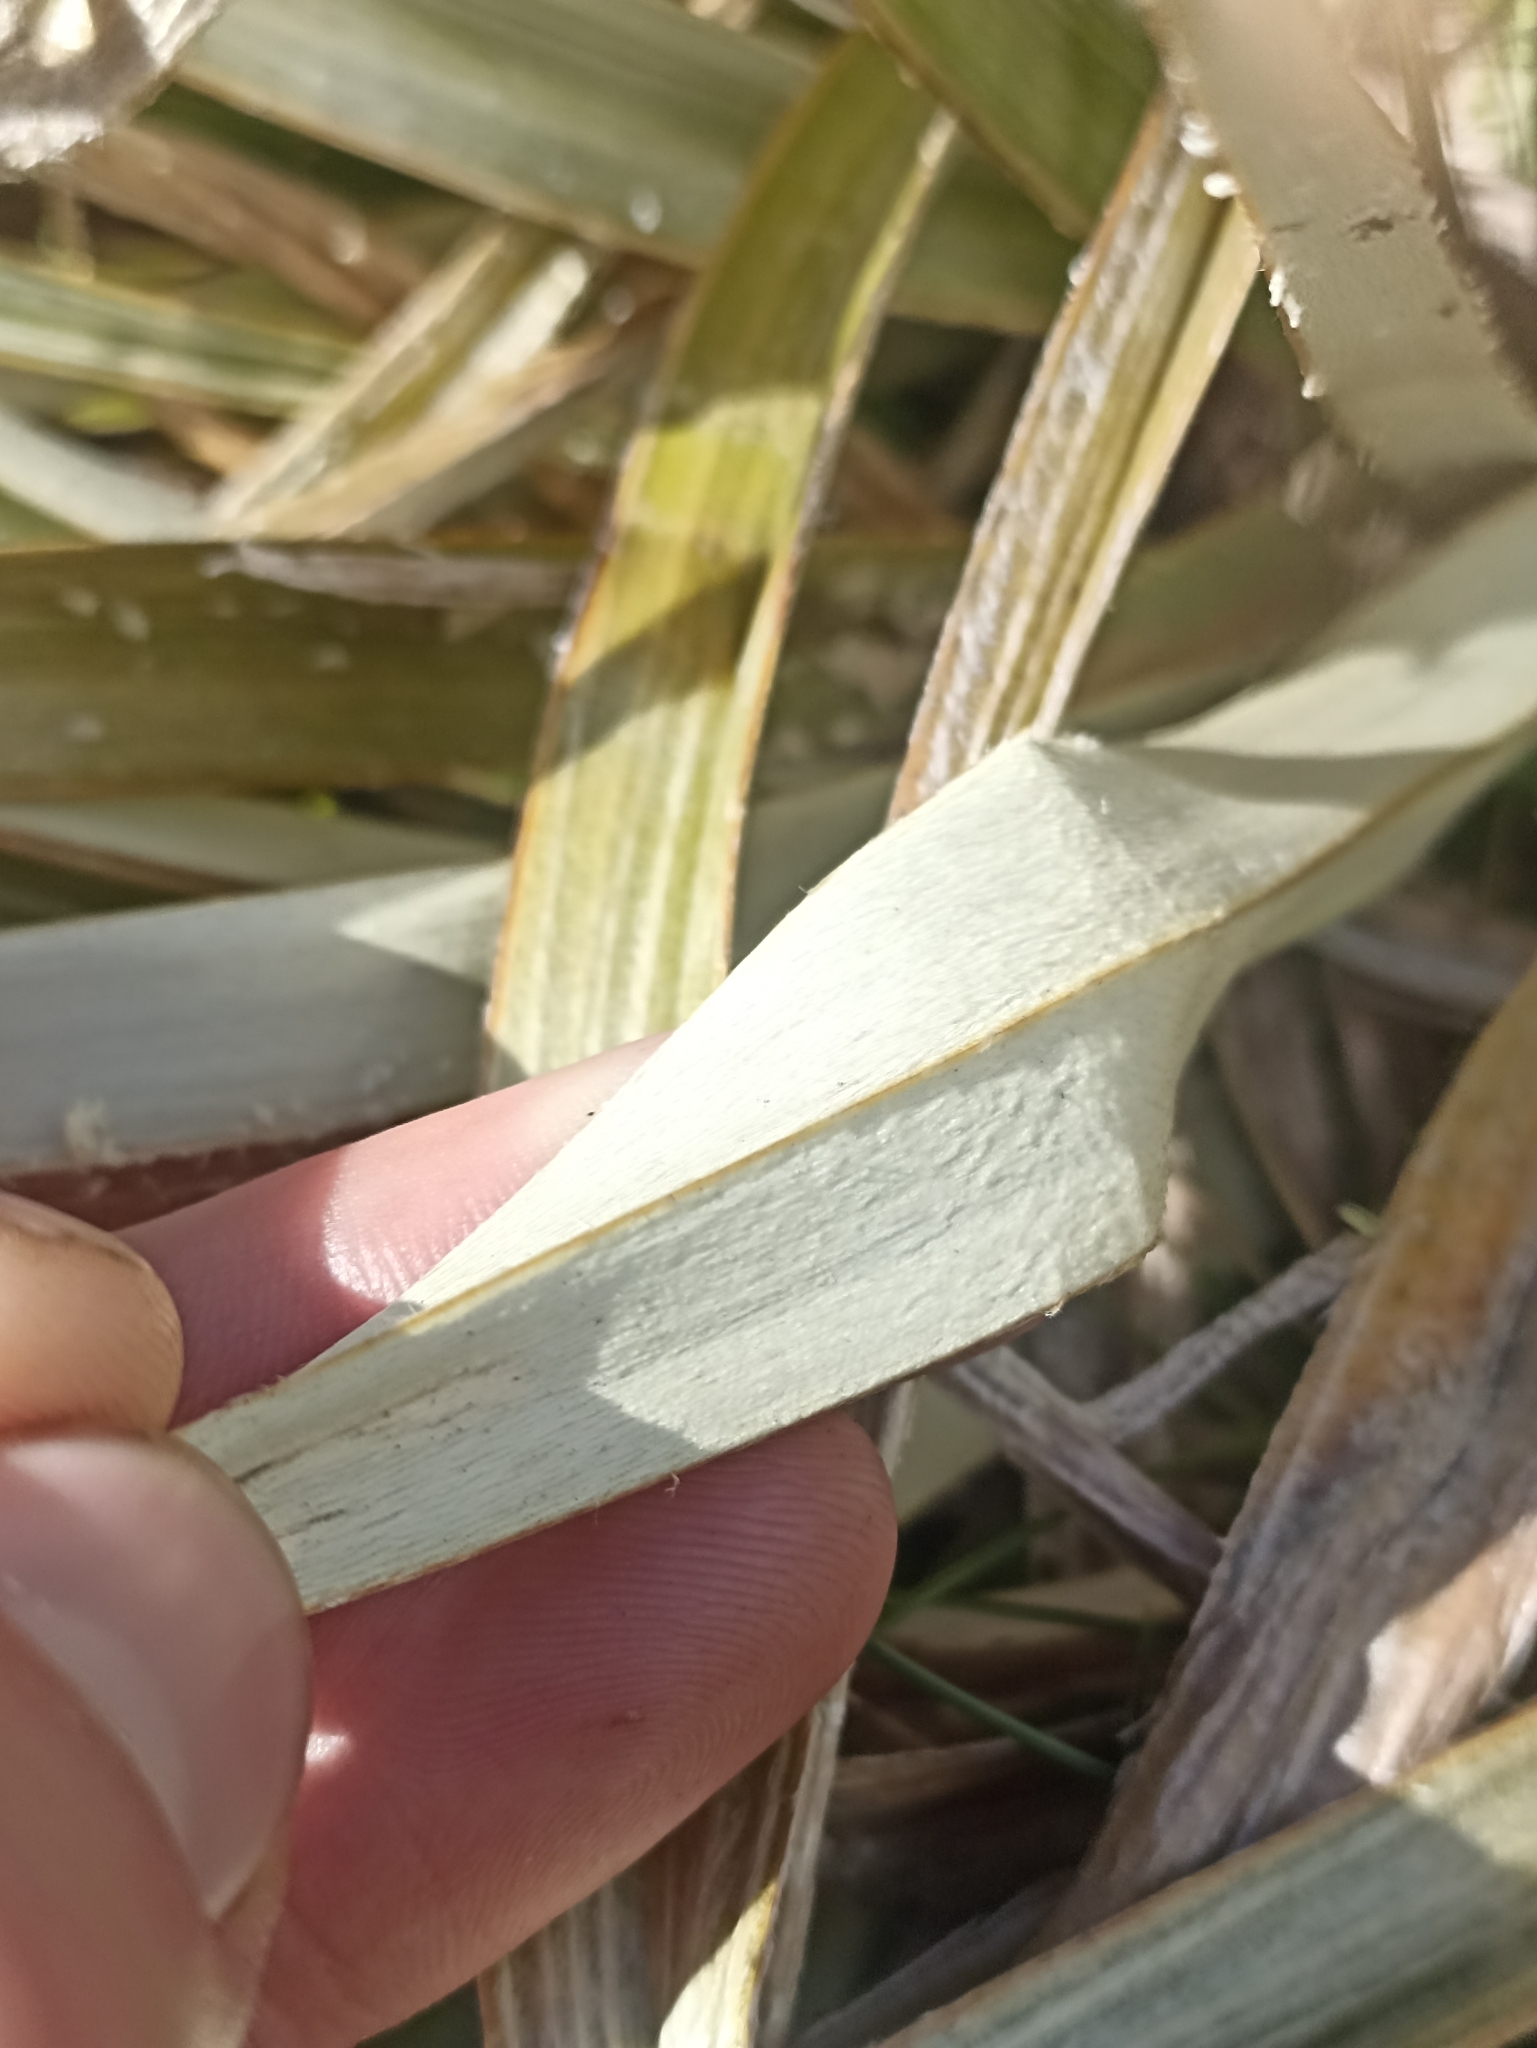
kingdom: Plantae
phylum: Tracheophyta
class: Liliopsida
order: Asparagales
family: Asteliaceae
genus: Astelia
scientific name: Astelia nervosa
